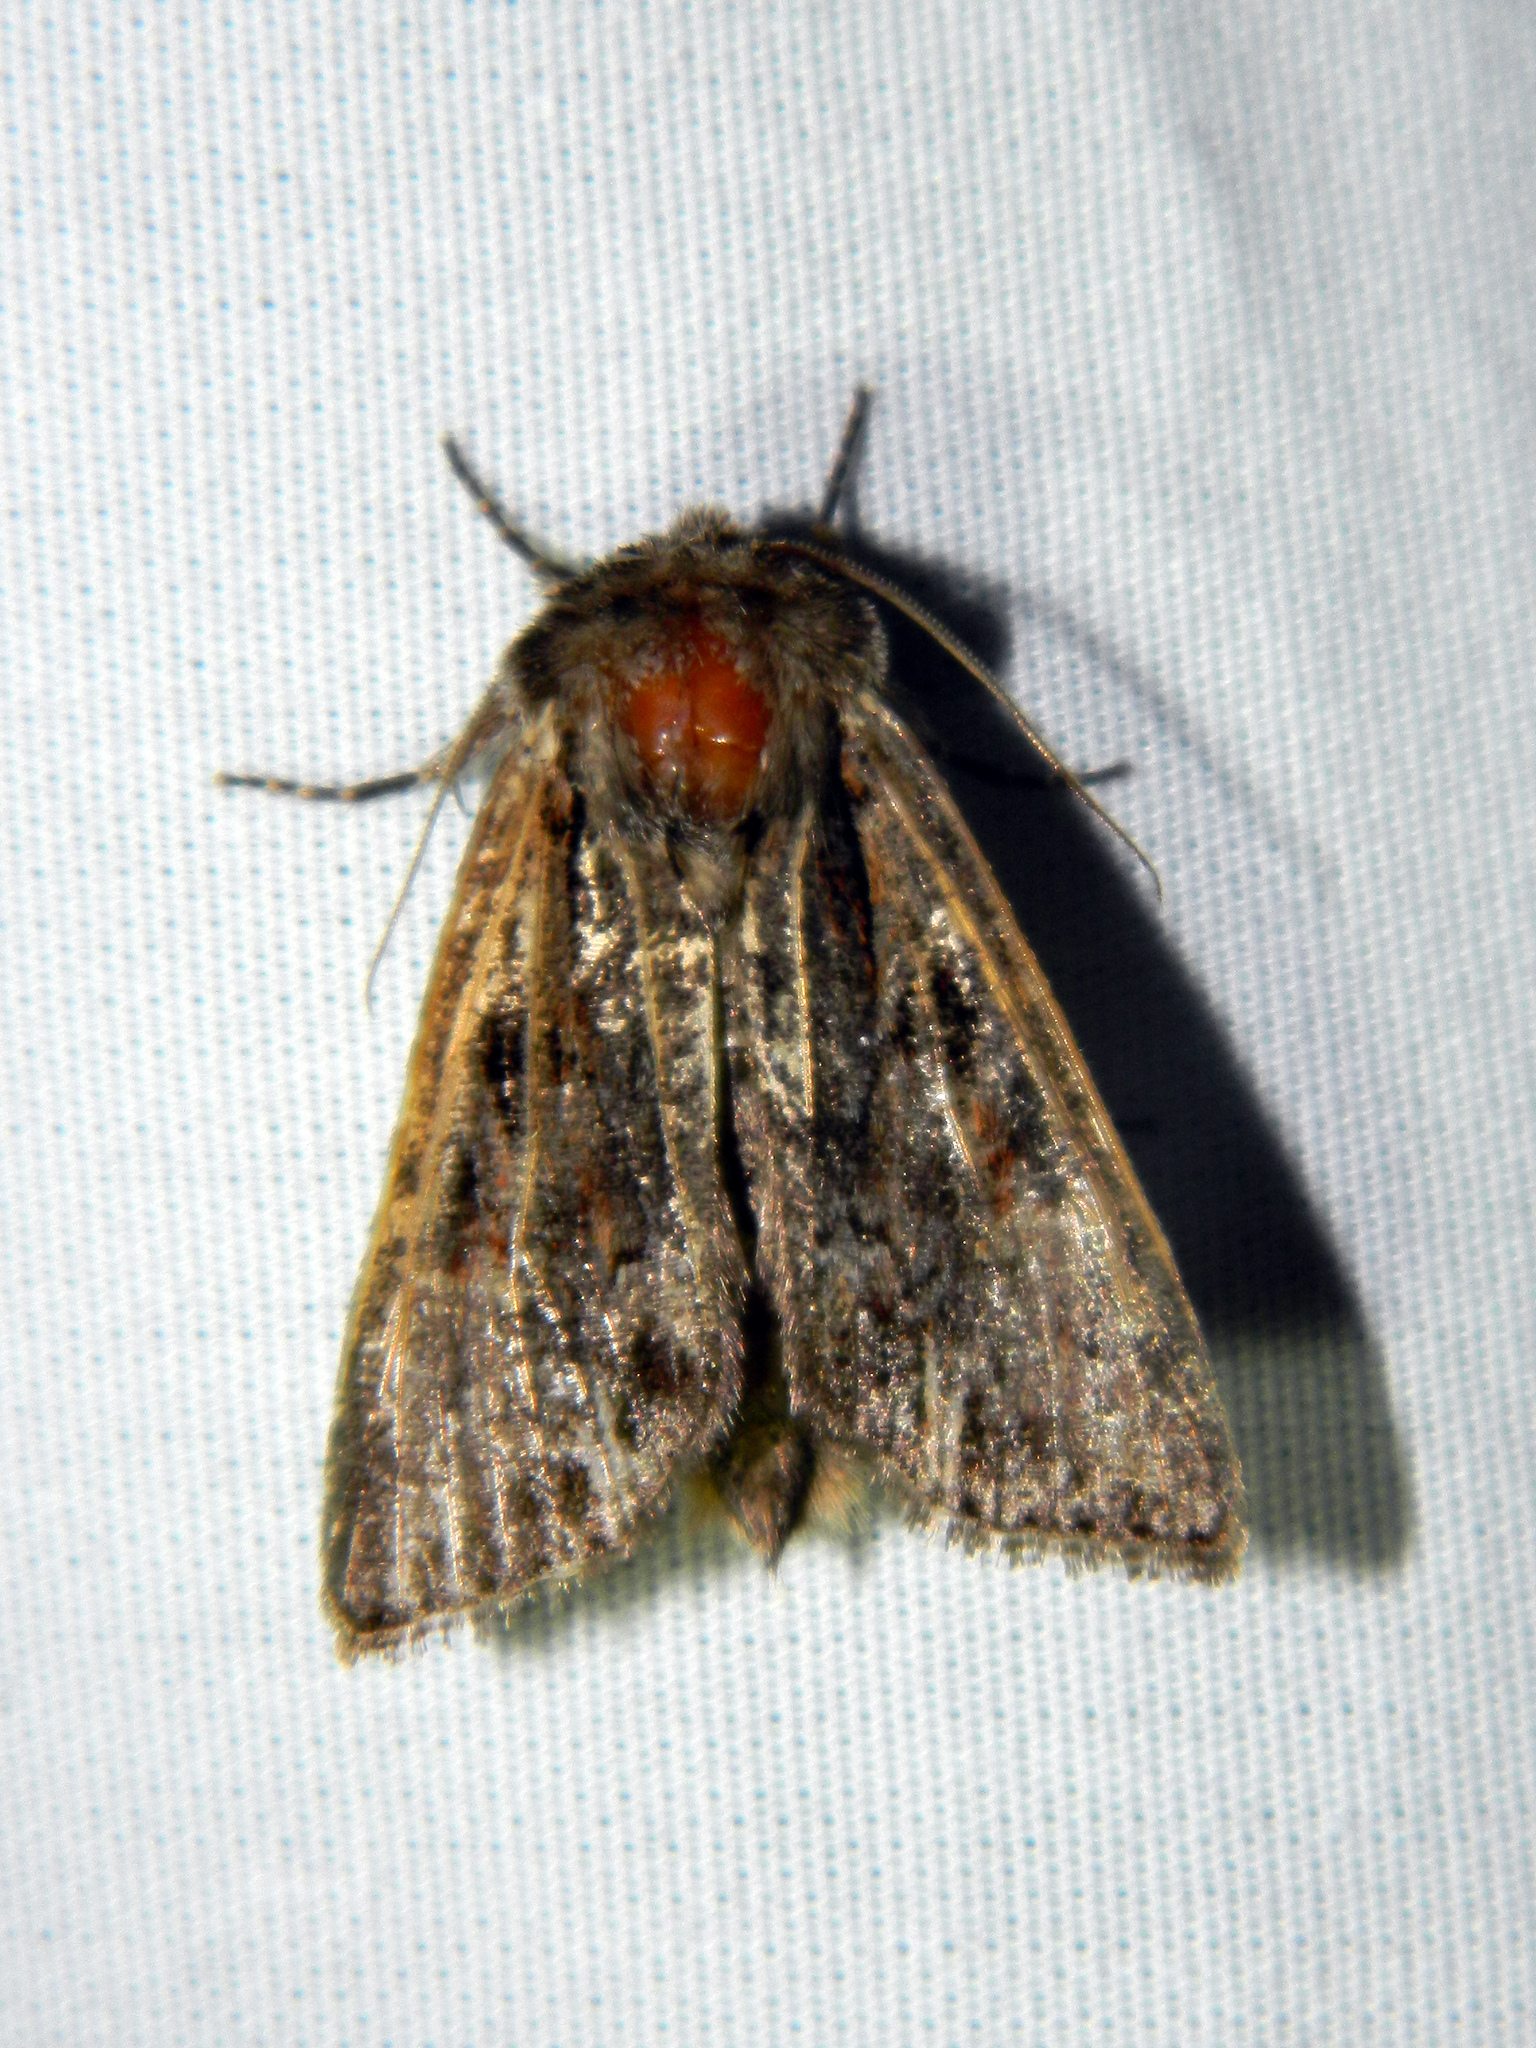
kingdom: Animalia
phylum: Arthropoda
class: Insecta
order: Lepidoptera
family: Noctuidae
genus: Achatia
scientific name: Achatia evicta
